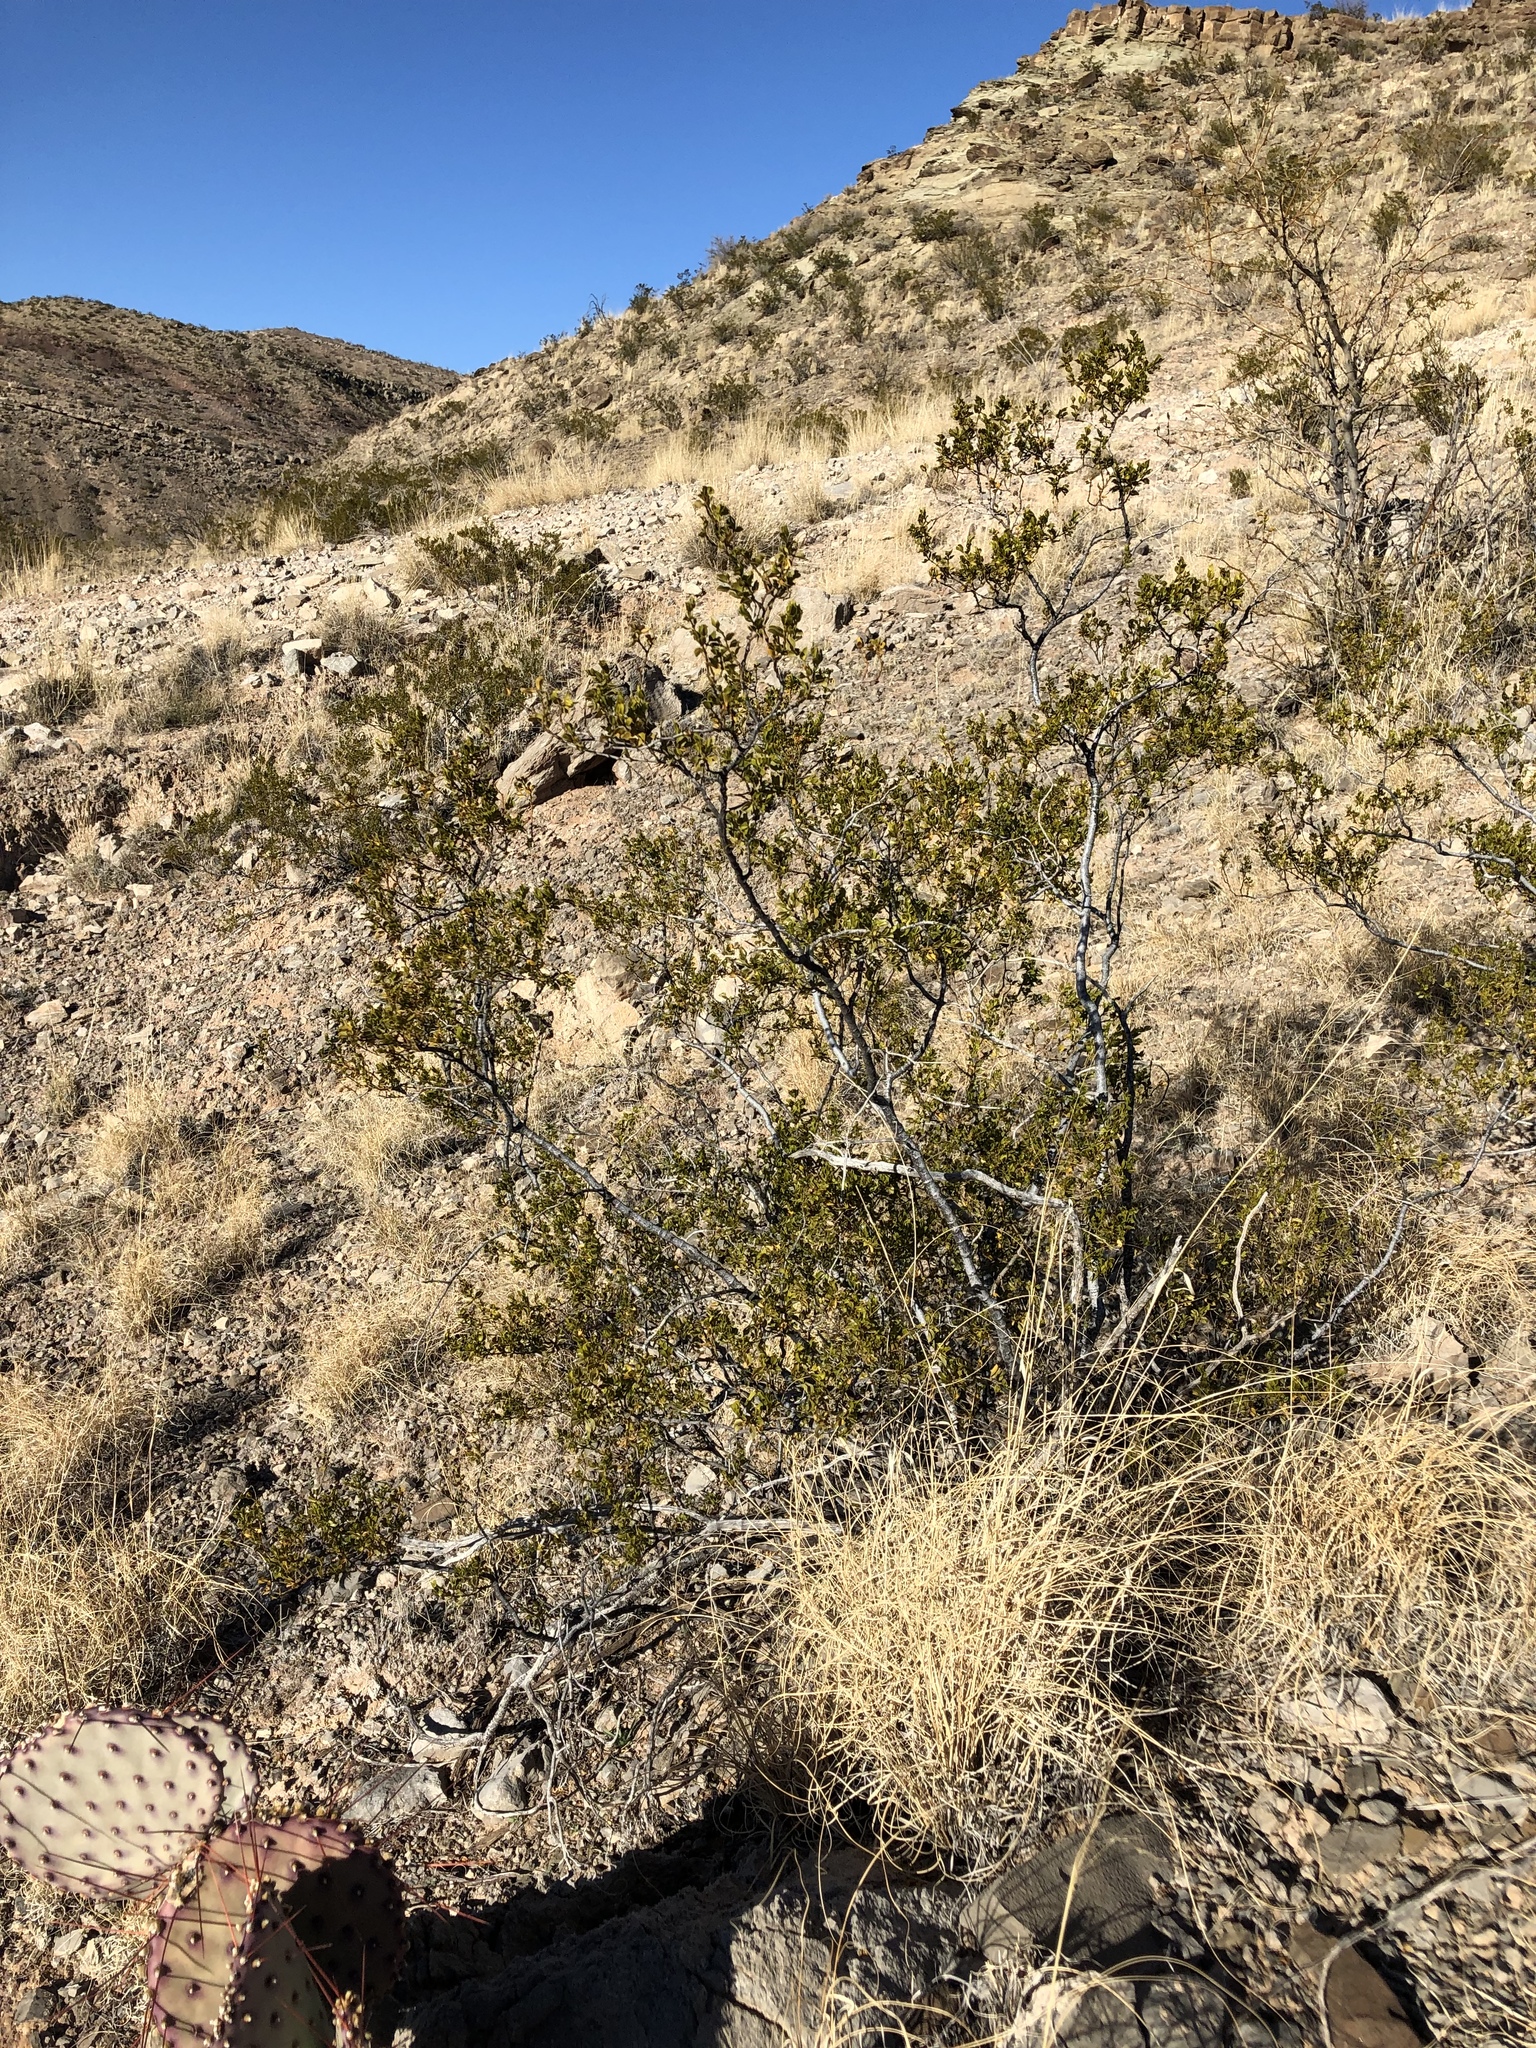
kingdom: Plantae
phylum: Tracheophyta
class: Magnoliopsida
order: Zygophyllales
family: Zygophyllaceae
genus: Larrea
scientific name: Larrea tridentata
